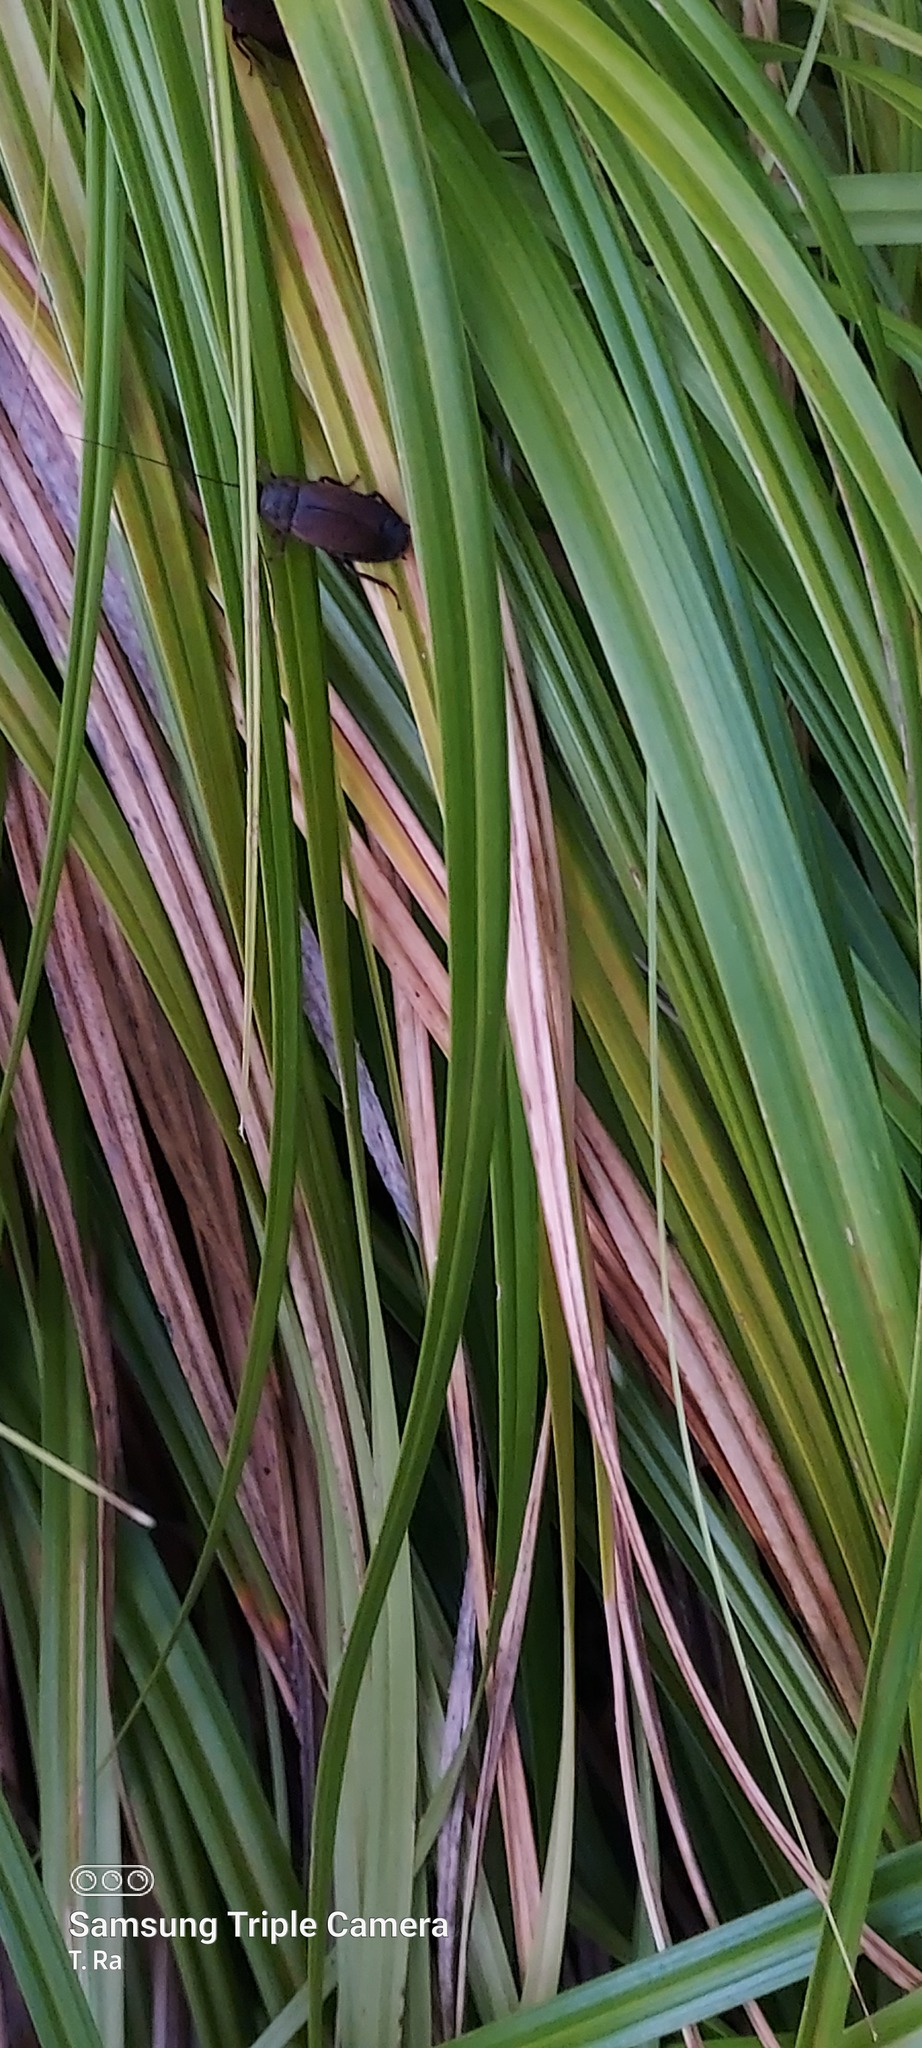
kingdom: Animalia
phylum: Arthropoda
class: Insecta
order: Blattodea
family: Blaberidae
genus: Diploptera
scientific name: Diploptera punctata
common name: Pacific beetle cockroach
